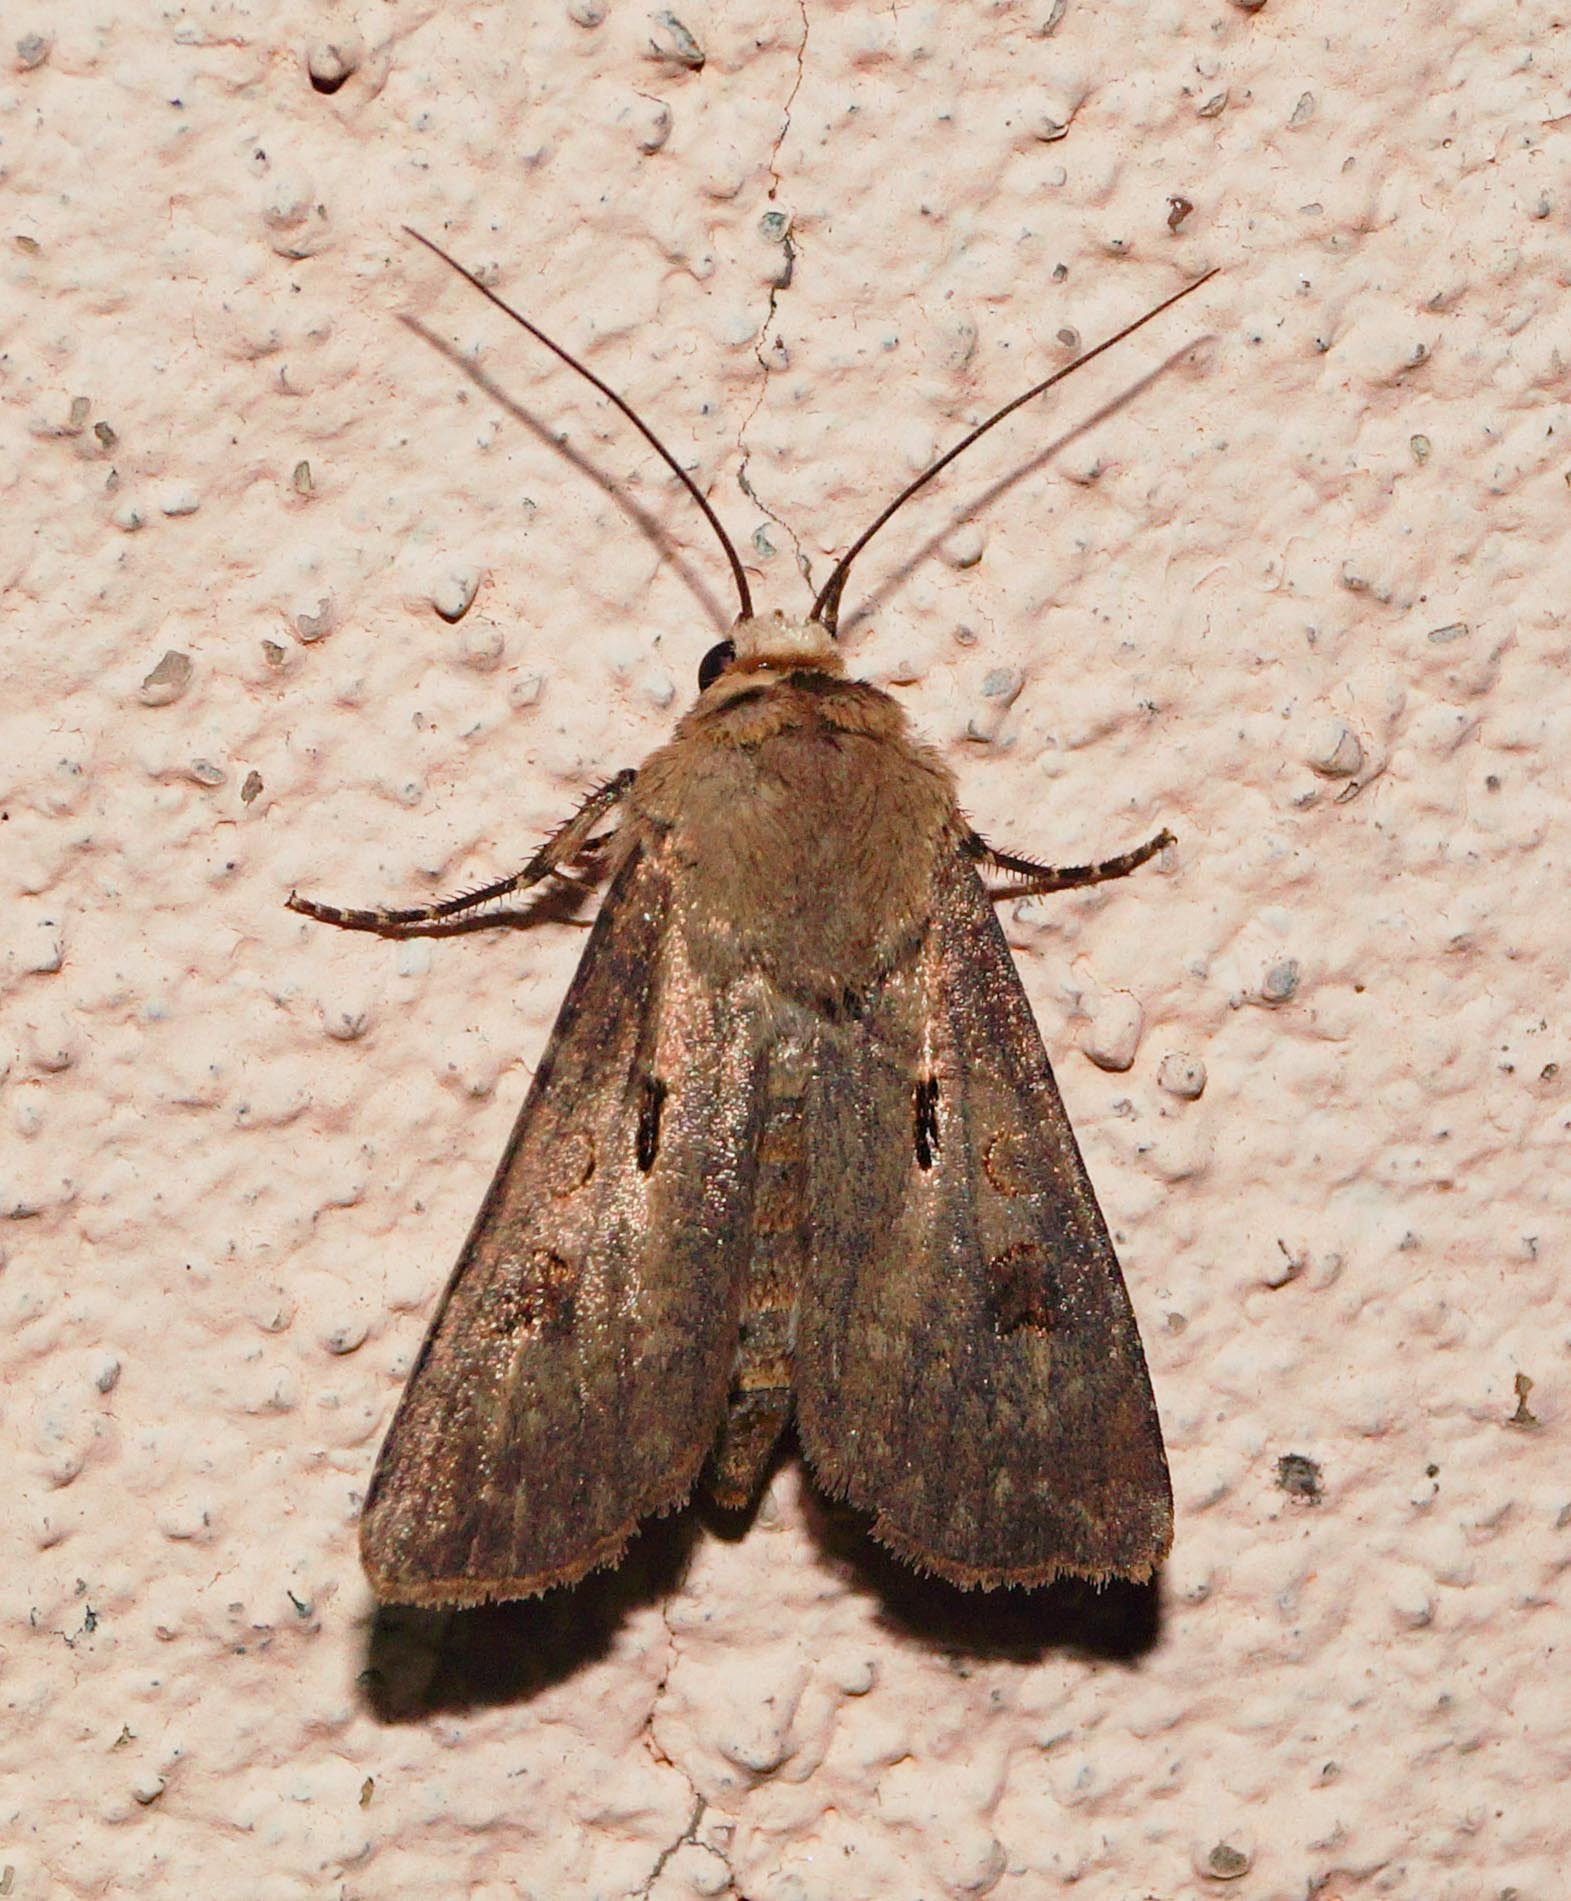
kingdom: Animalia
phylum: Arthropoda
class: Insecta
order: Lepidoptera
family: Noctuidae
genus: Agrotis
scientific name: Agrotis exclamationis
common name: Heart and dart
